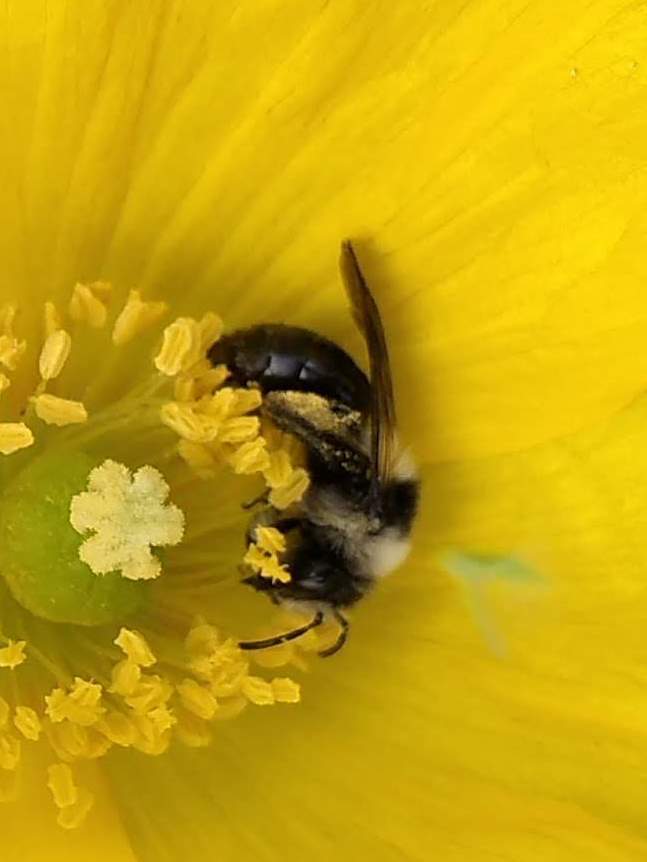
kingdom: Animalia
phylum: Arthropoda
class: Insecta
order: Hymenoptera
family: Andrenidae
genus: Andrena
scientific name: Andrena cineraria
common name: Ashy mining bee
